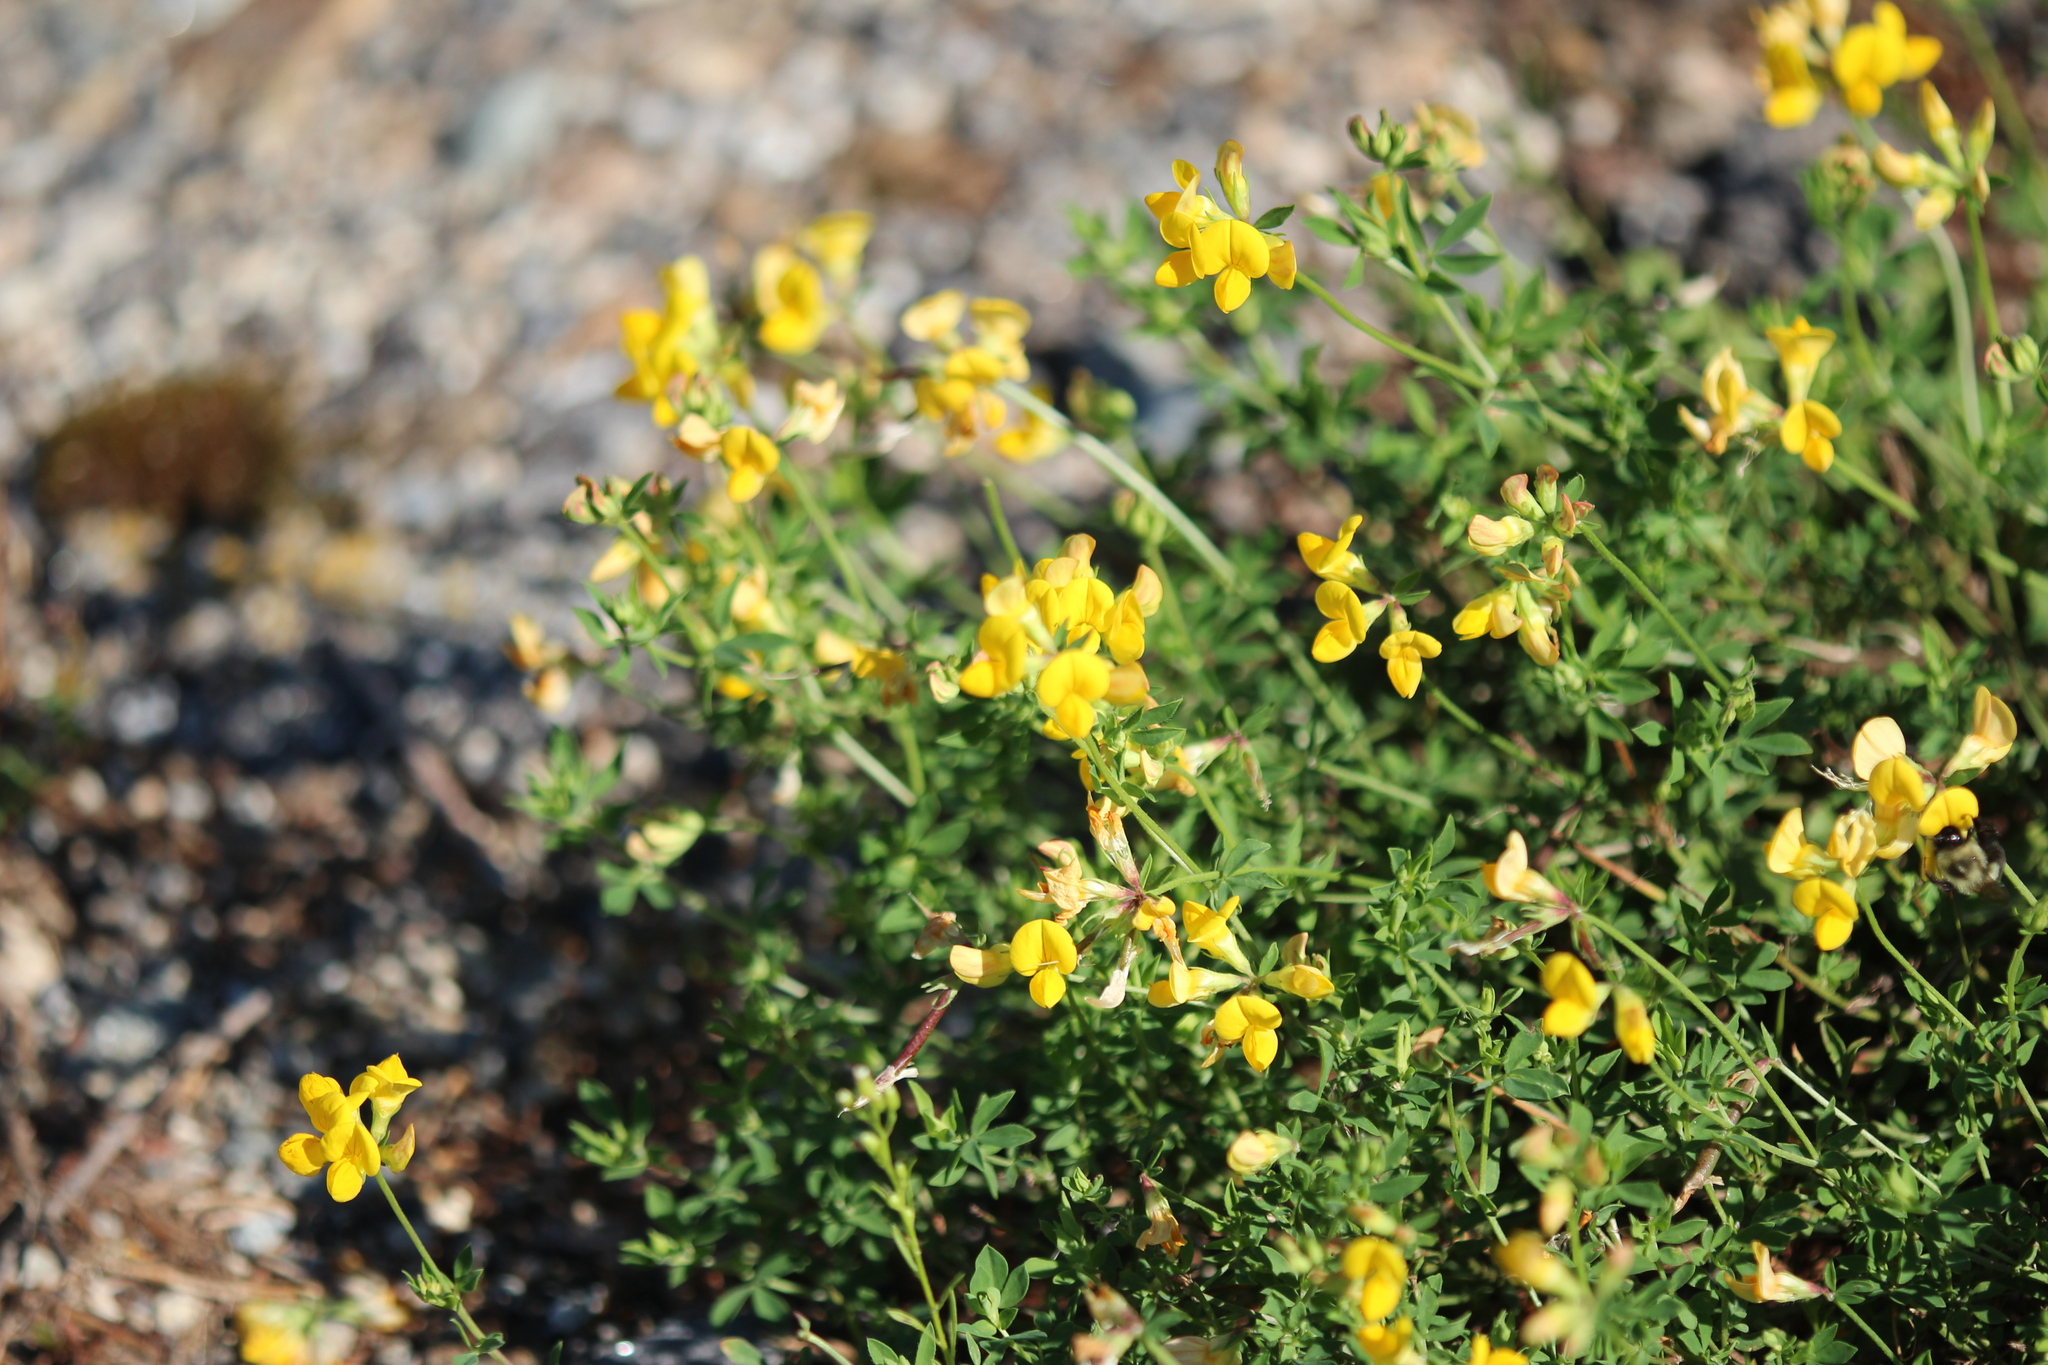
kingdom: Plantae
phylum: Tracheophyta
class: Magnoliopsida
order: Fabales
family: Fabaceae
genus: Lotus
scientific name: Lotus corniculatus
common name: Common bird's-foot-trefoil
